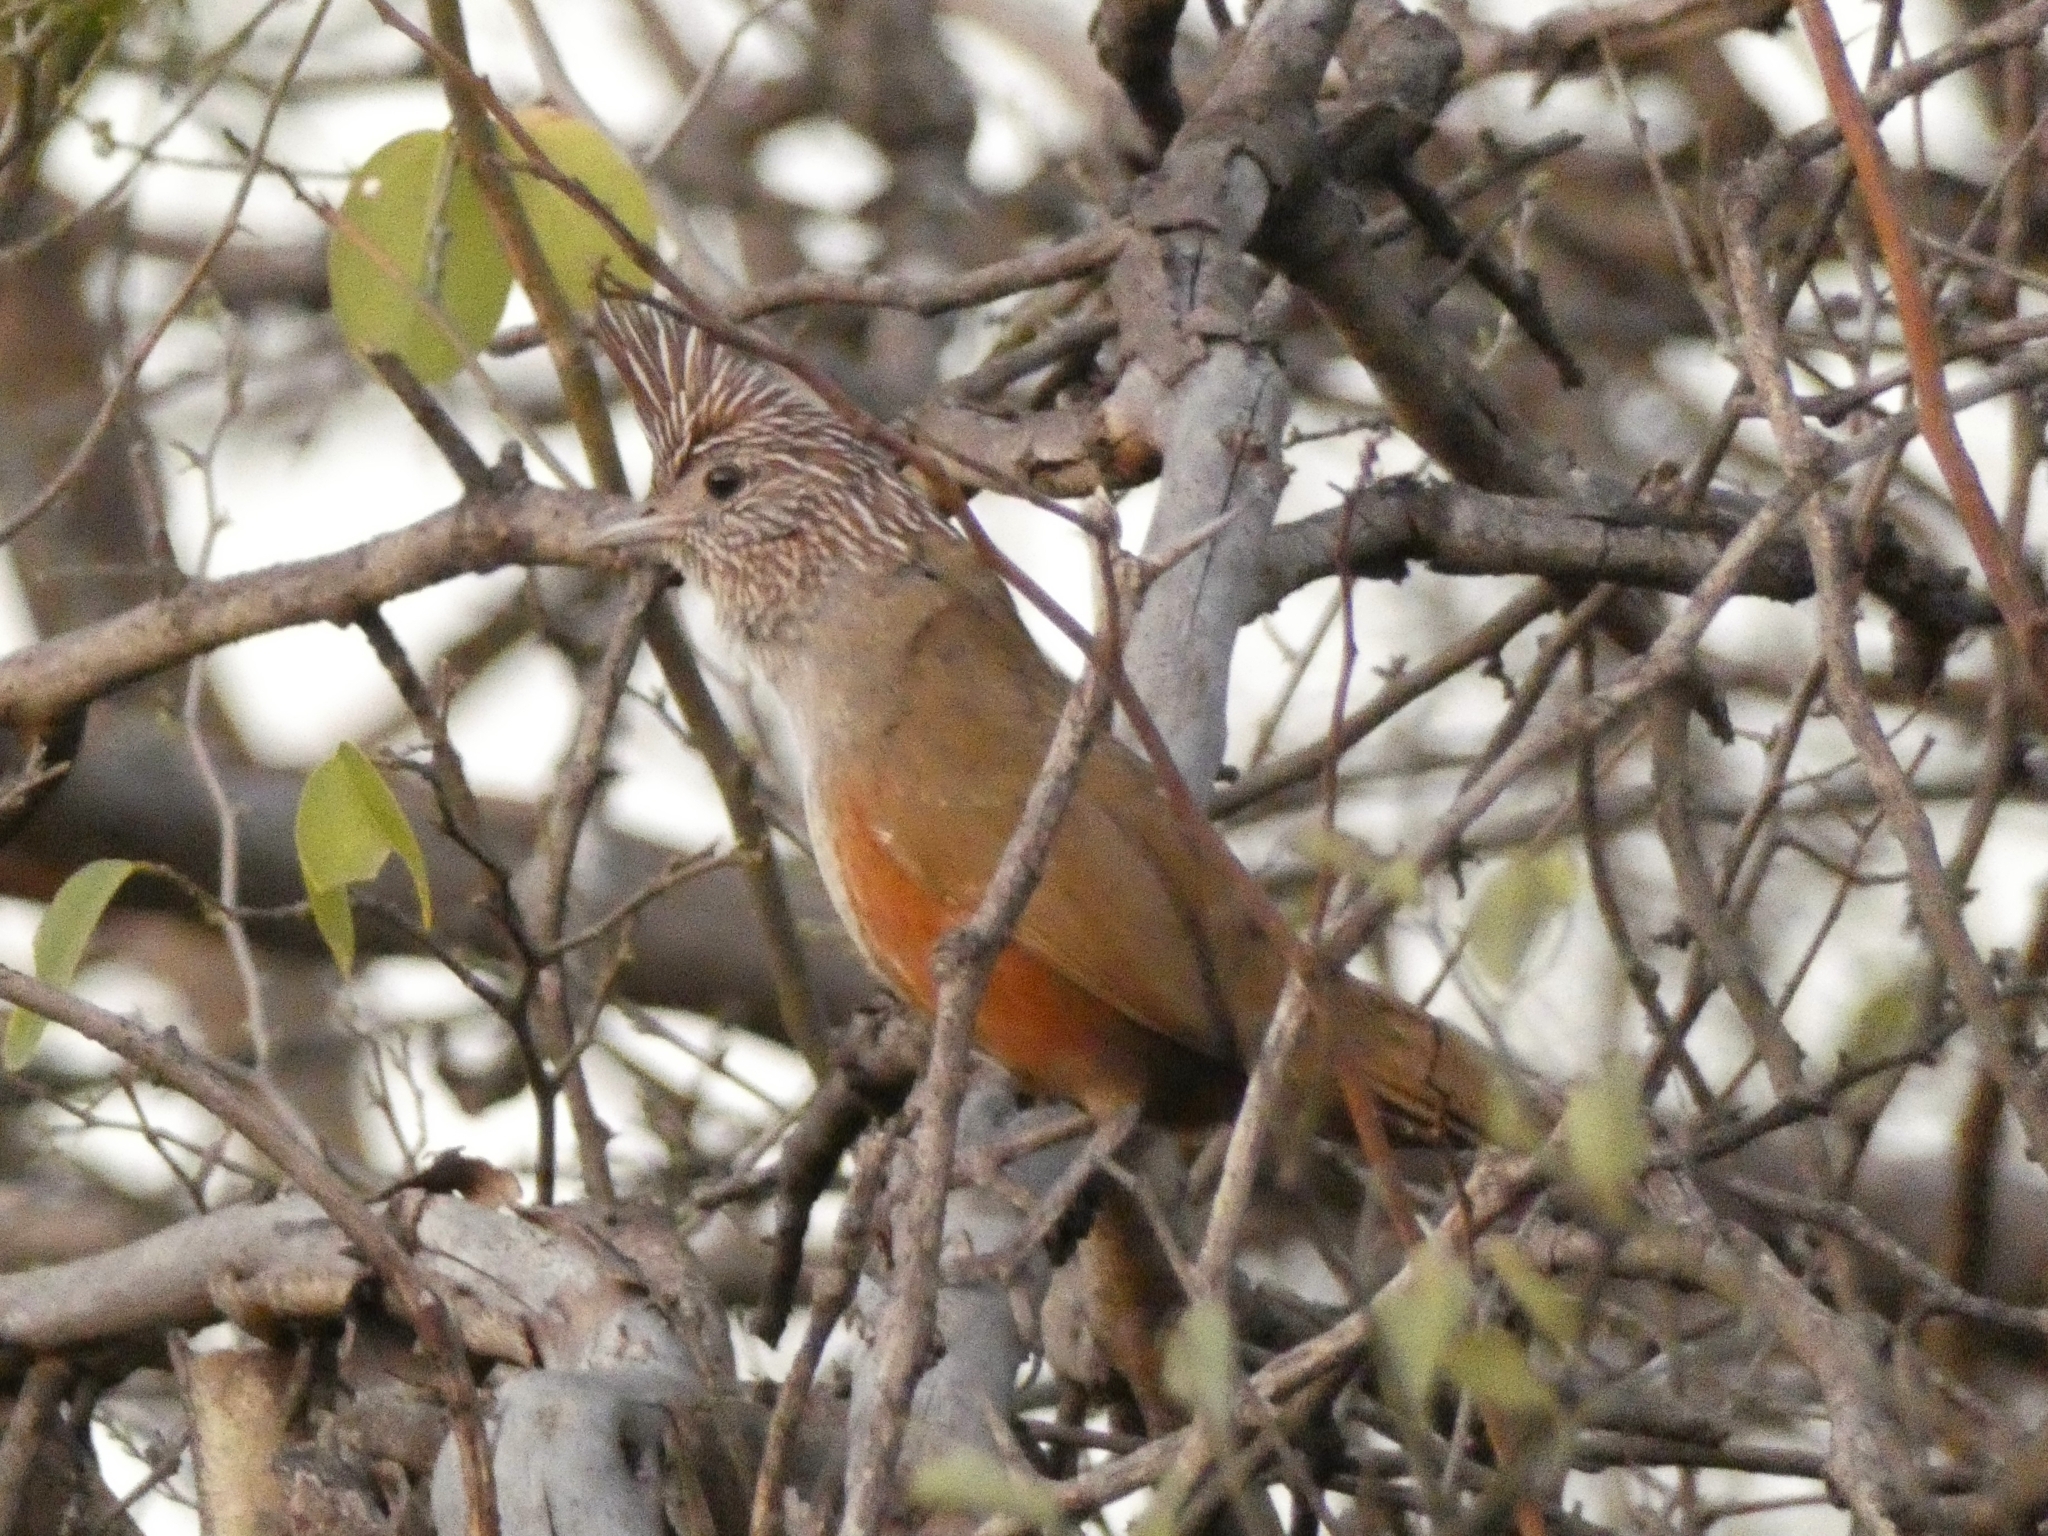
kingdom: Animalia
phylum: Chordata
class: Aves
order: Passeriformes
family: Rhinocryptidae
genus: Rhinocrypta
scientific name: Rhinocrypta lanceolata
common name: Crested gallito
